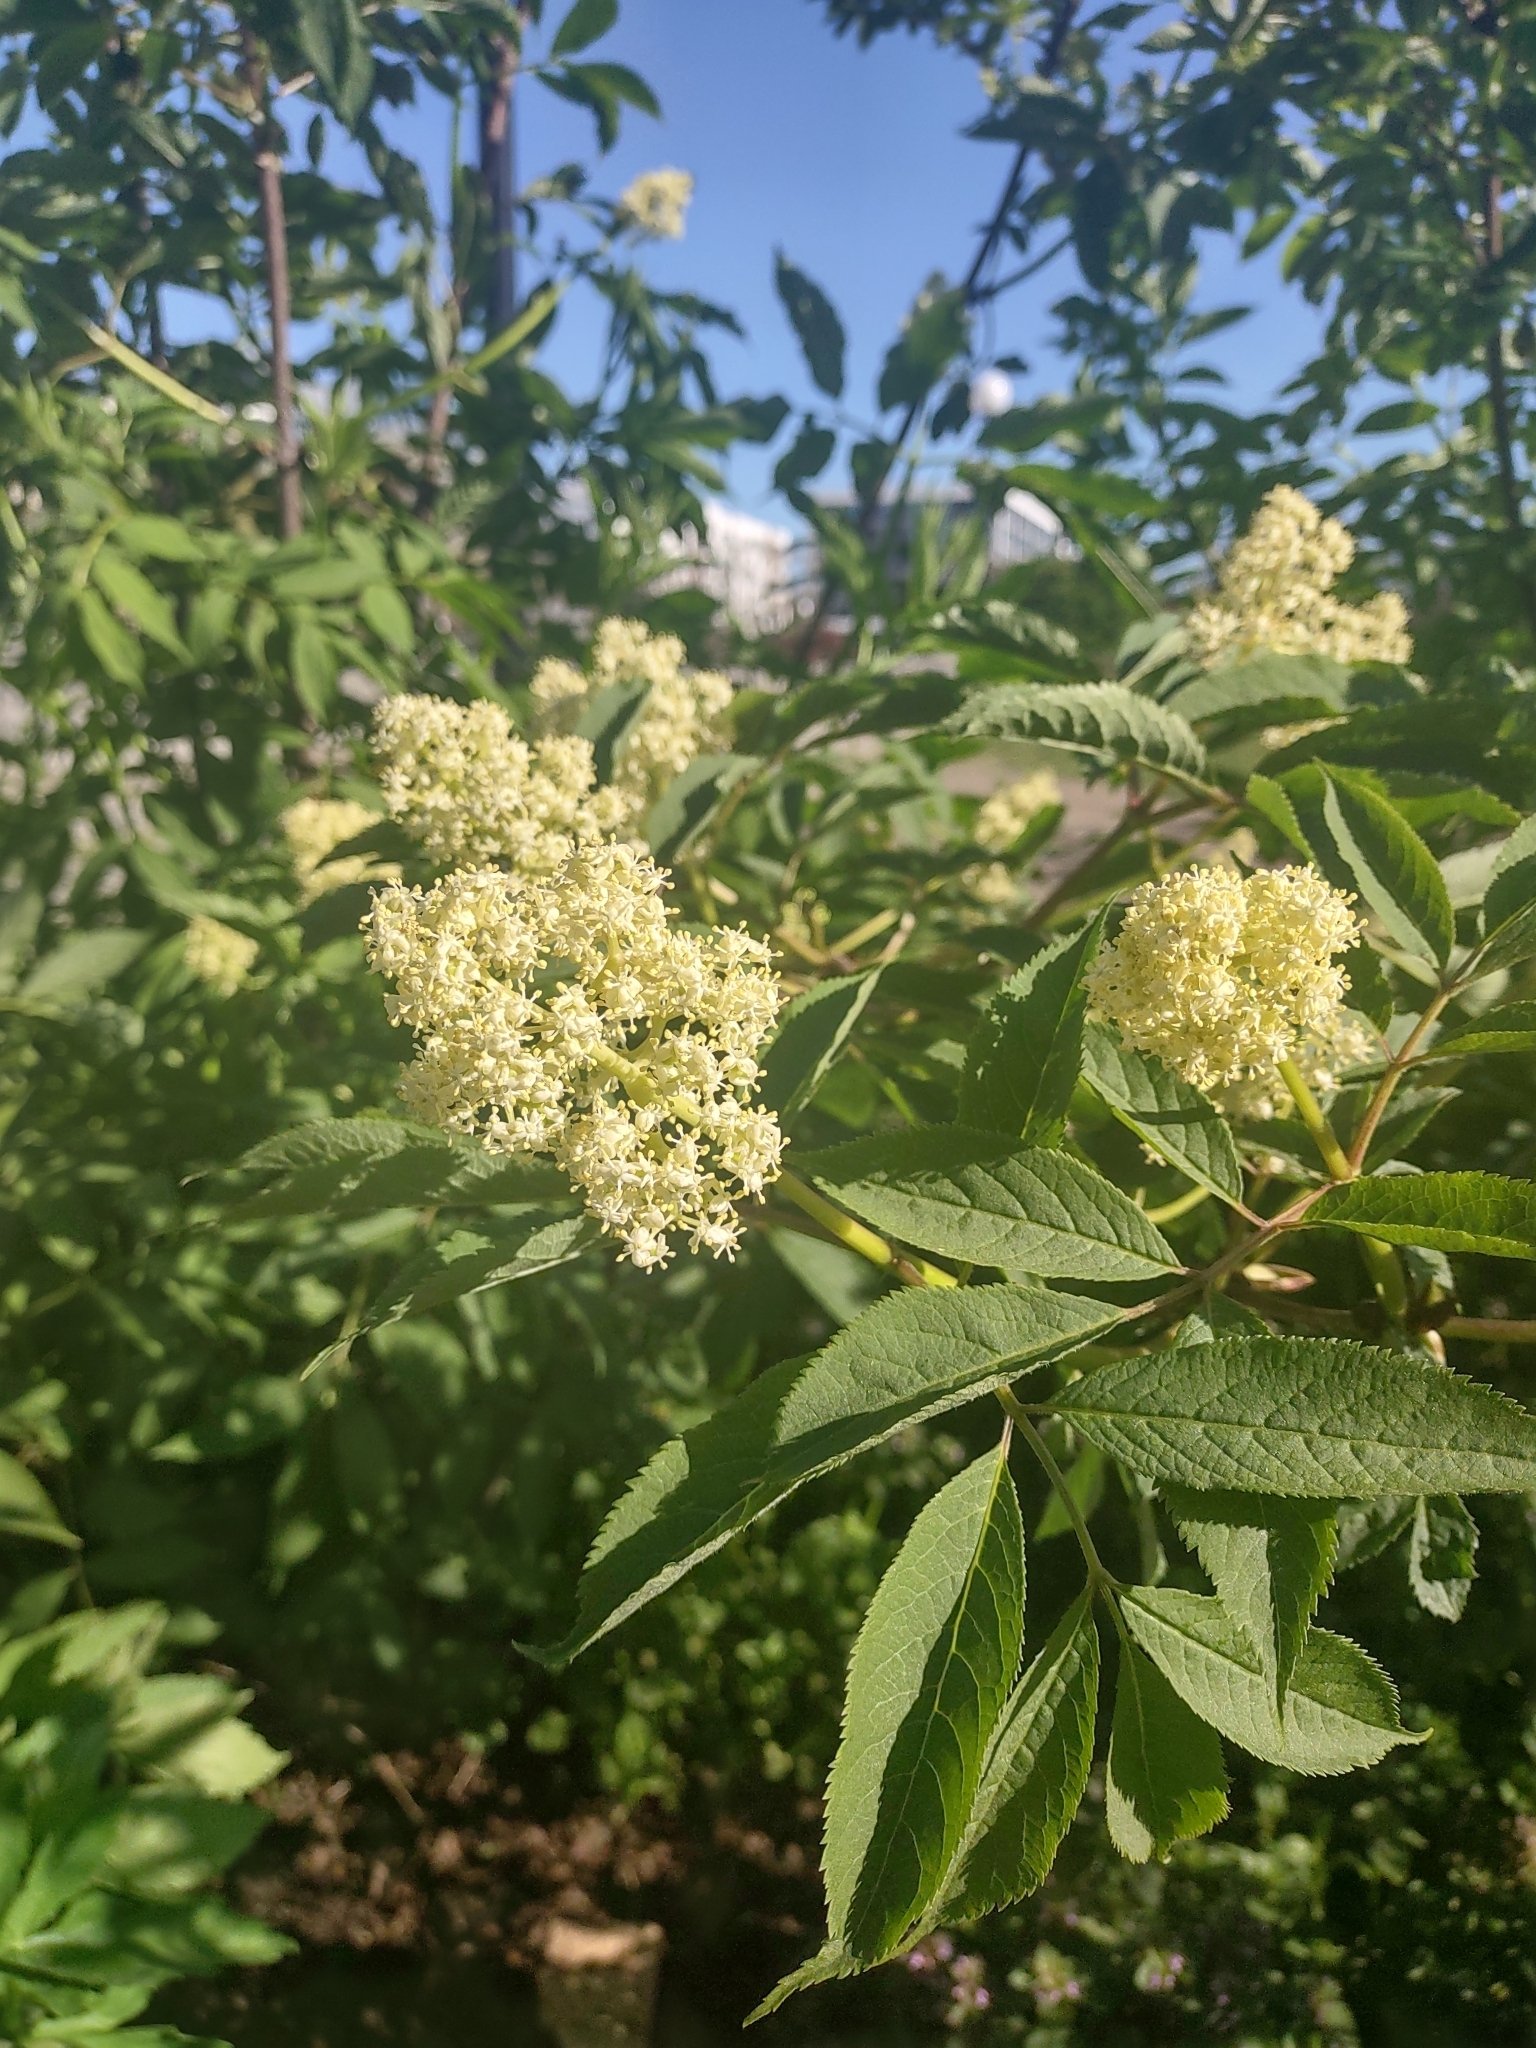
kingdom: Plantae
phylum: Tracheophyta
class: Magnoliopsida
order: Dipsacales
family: Viburnaceae
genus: Sambucus
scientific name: Sambucus racemosa
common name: Red-berried elder
